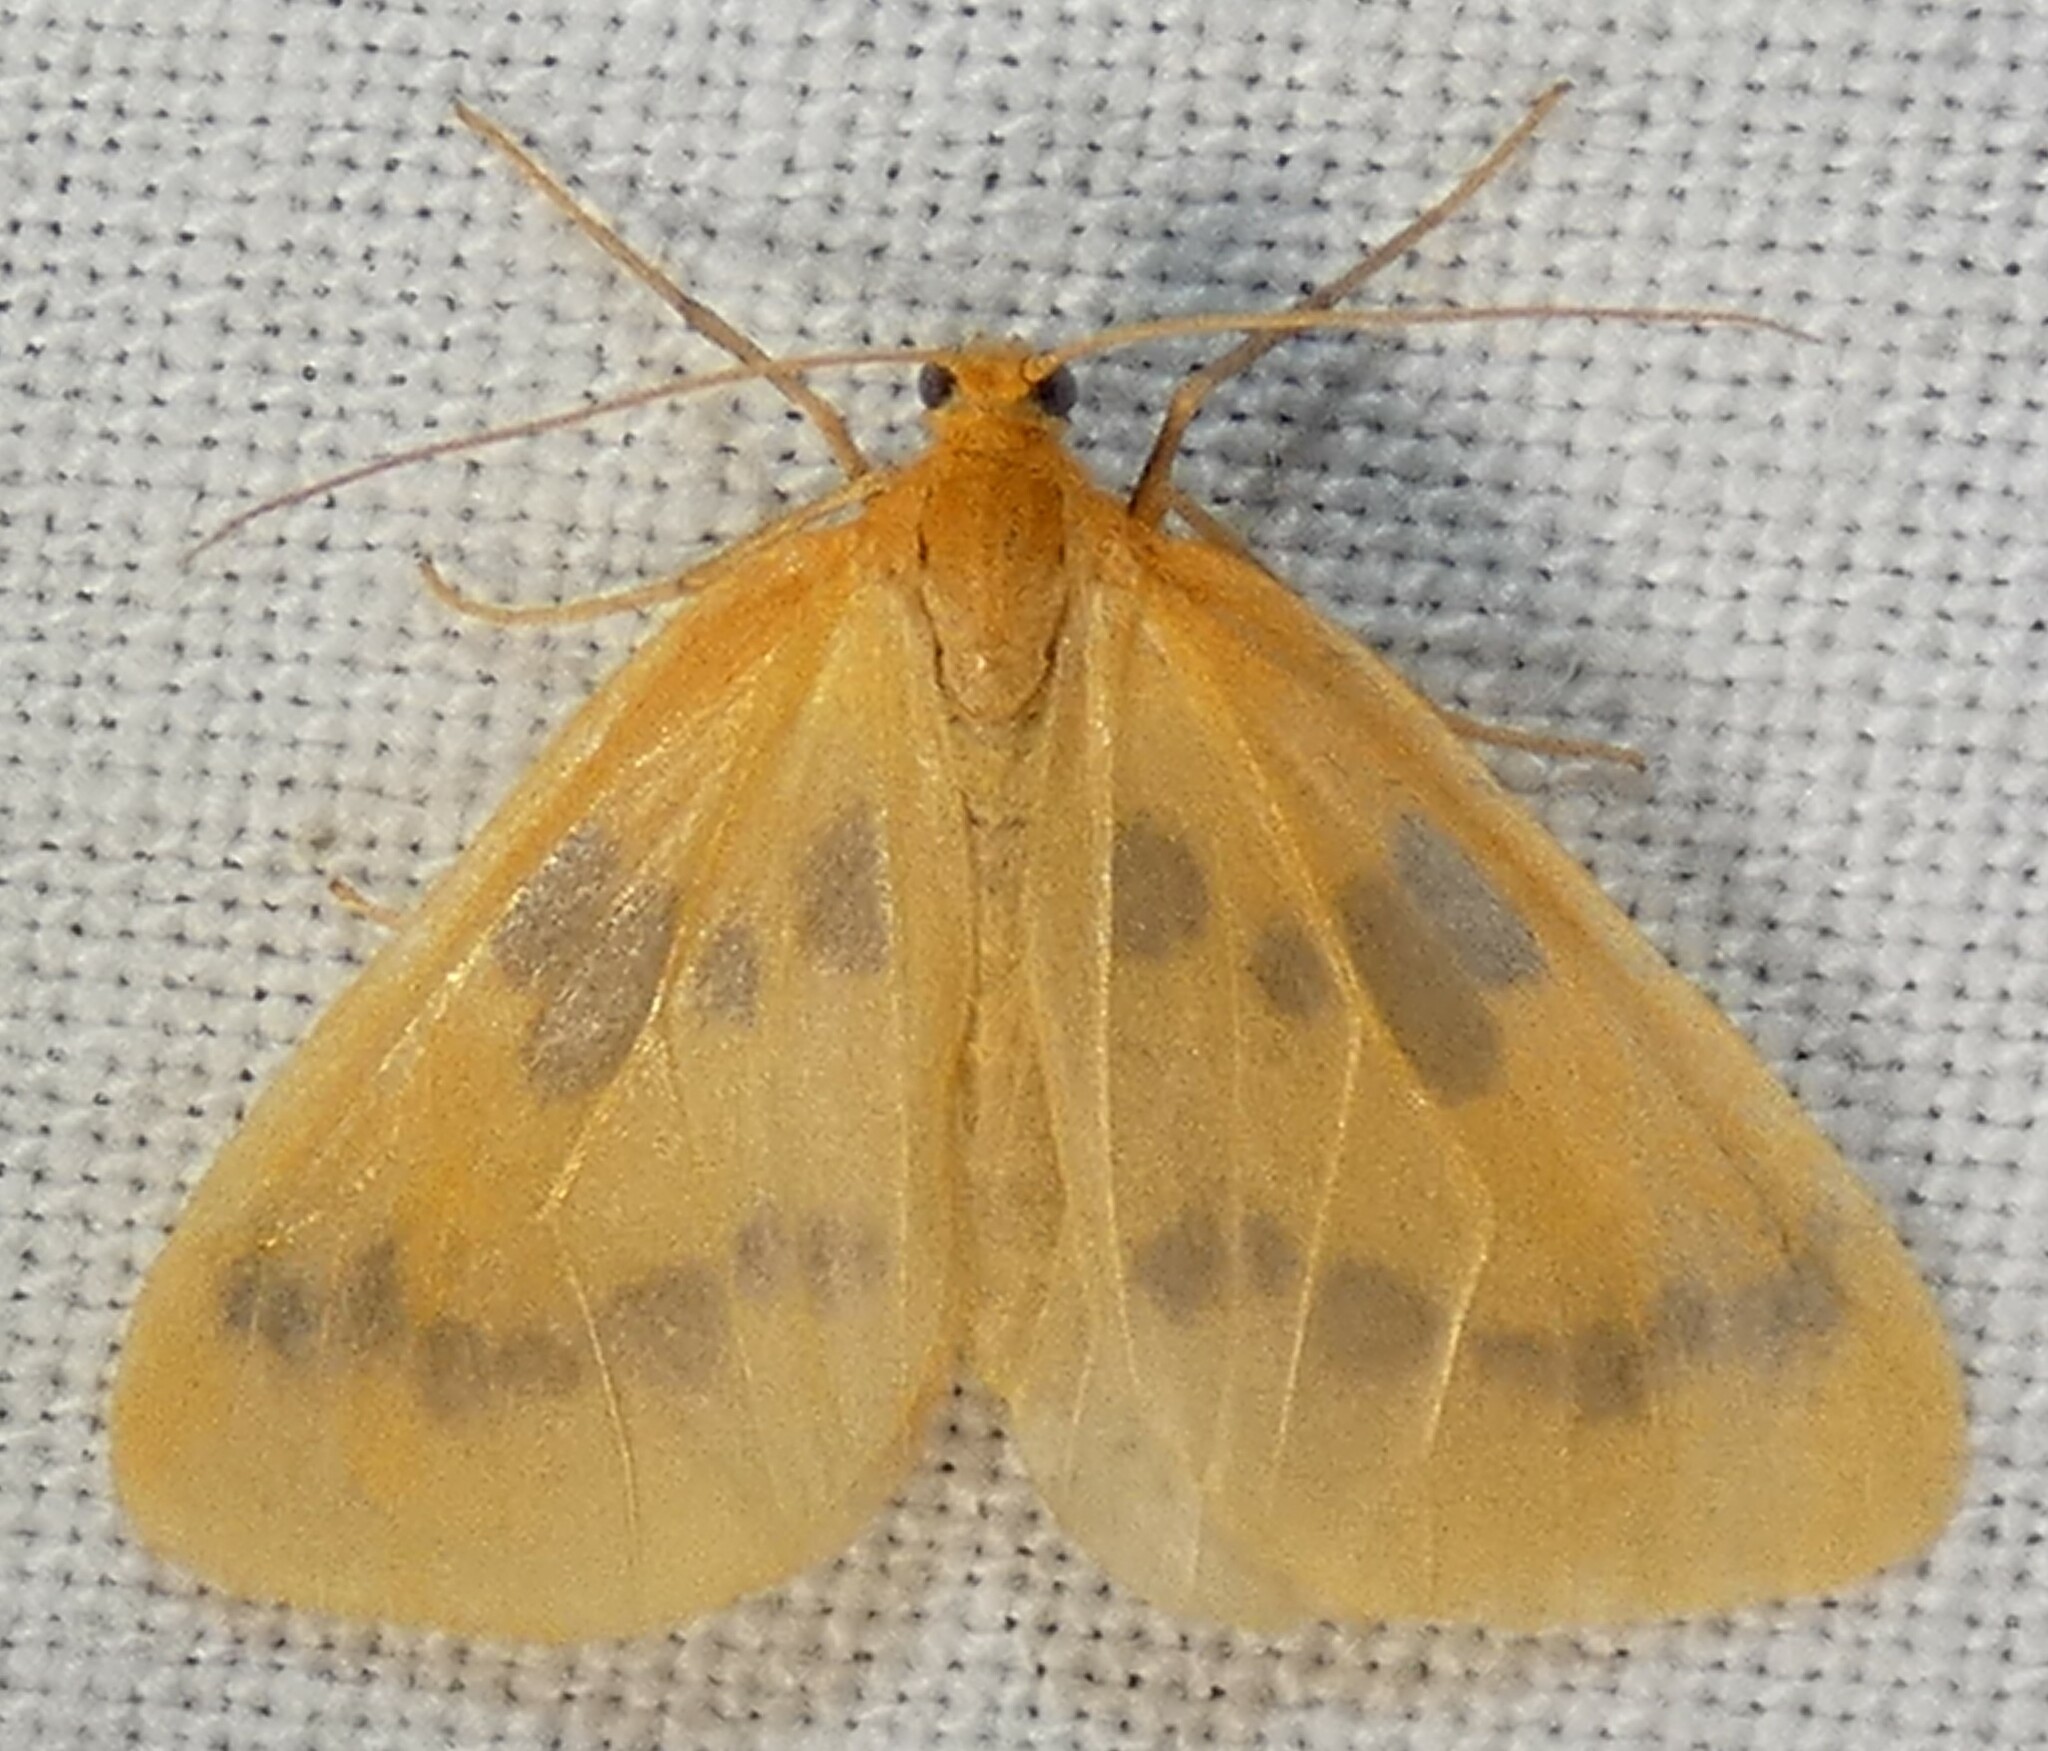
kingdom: Animalia
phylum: Arthropoda
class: Insecta
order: Lepidoptera
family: Geometridae
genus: Eubaphe
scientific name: Eubaphe meridiana
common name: Little beggar
